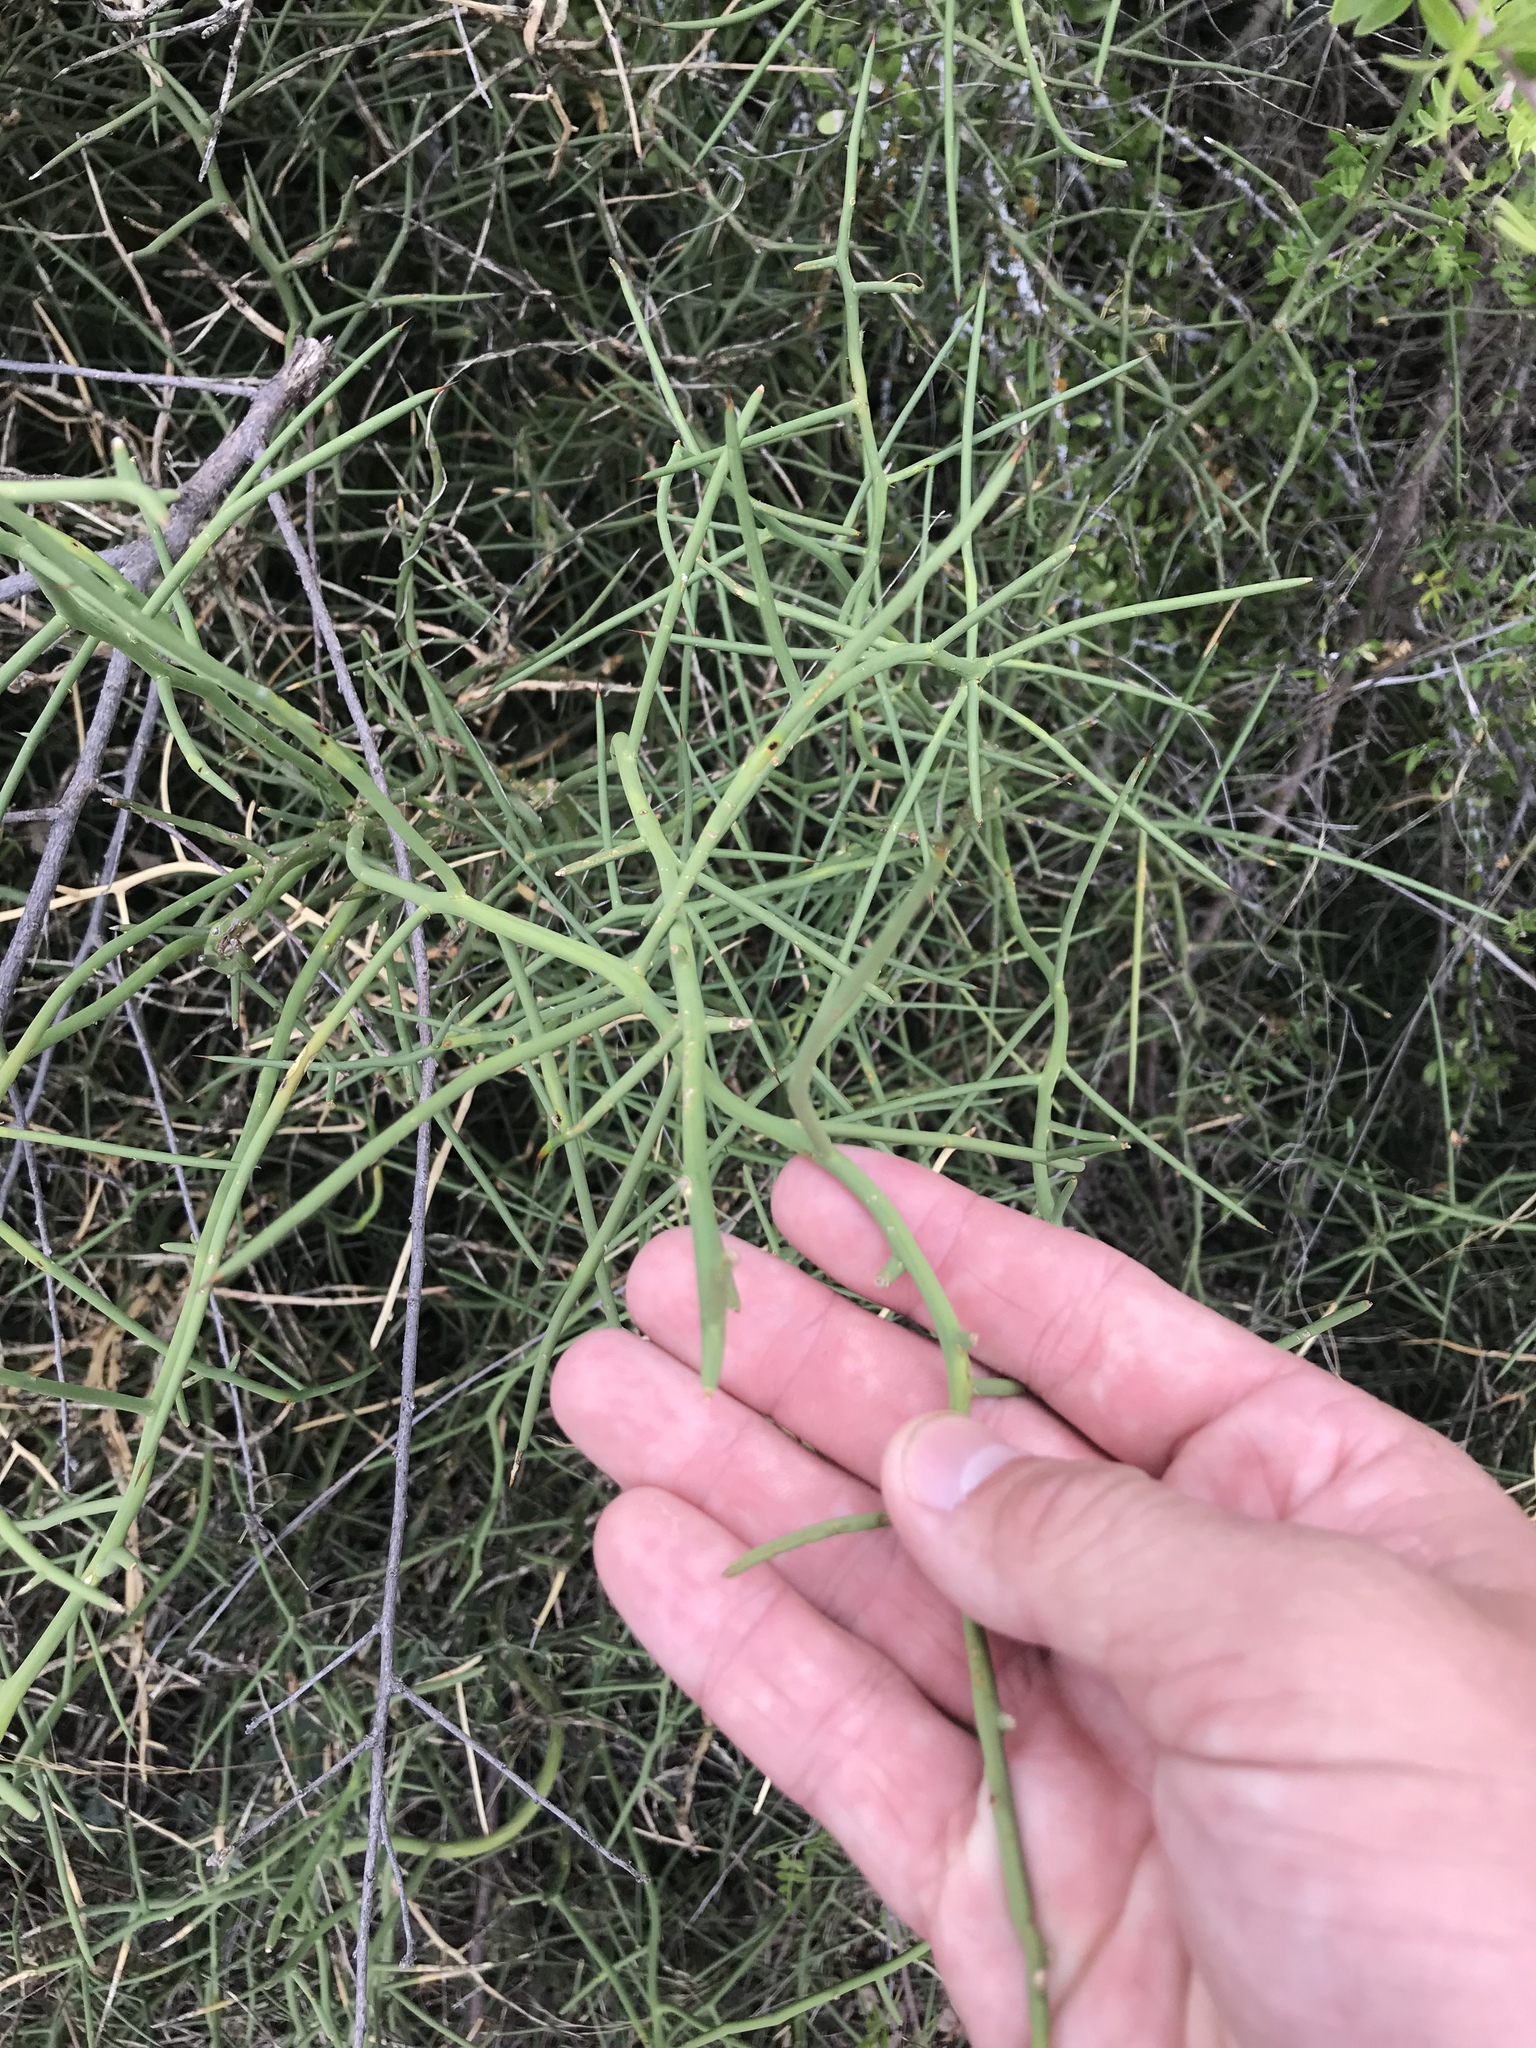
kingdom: Plantae
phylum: Tracheophyta
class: Magnoliopsida
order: Brassicales
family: Koeberliniaceae
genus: Koeberlinia
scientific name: Koeberlinia spinosa
